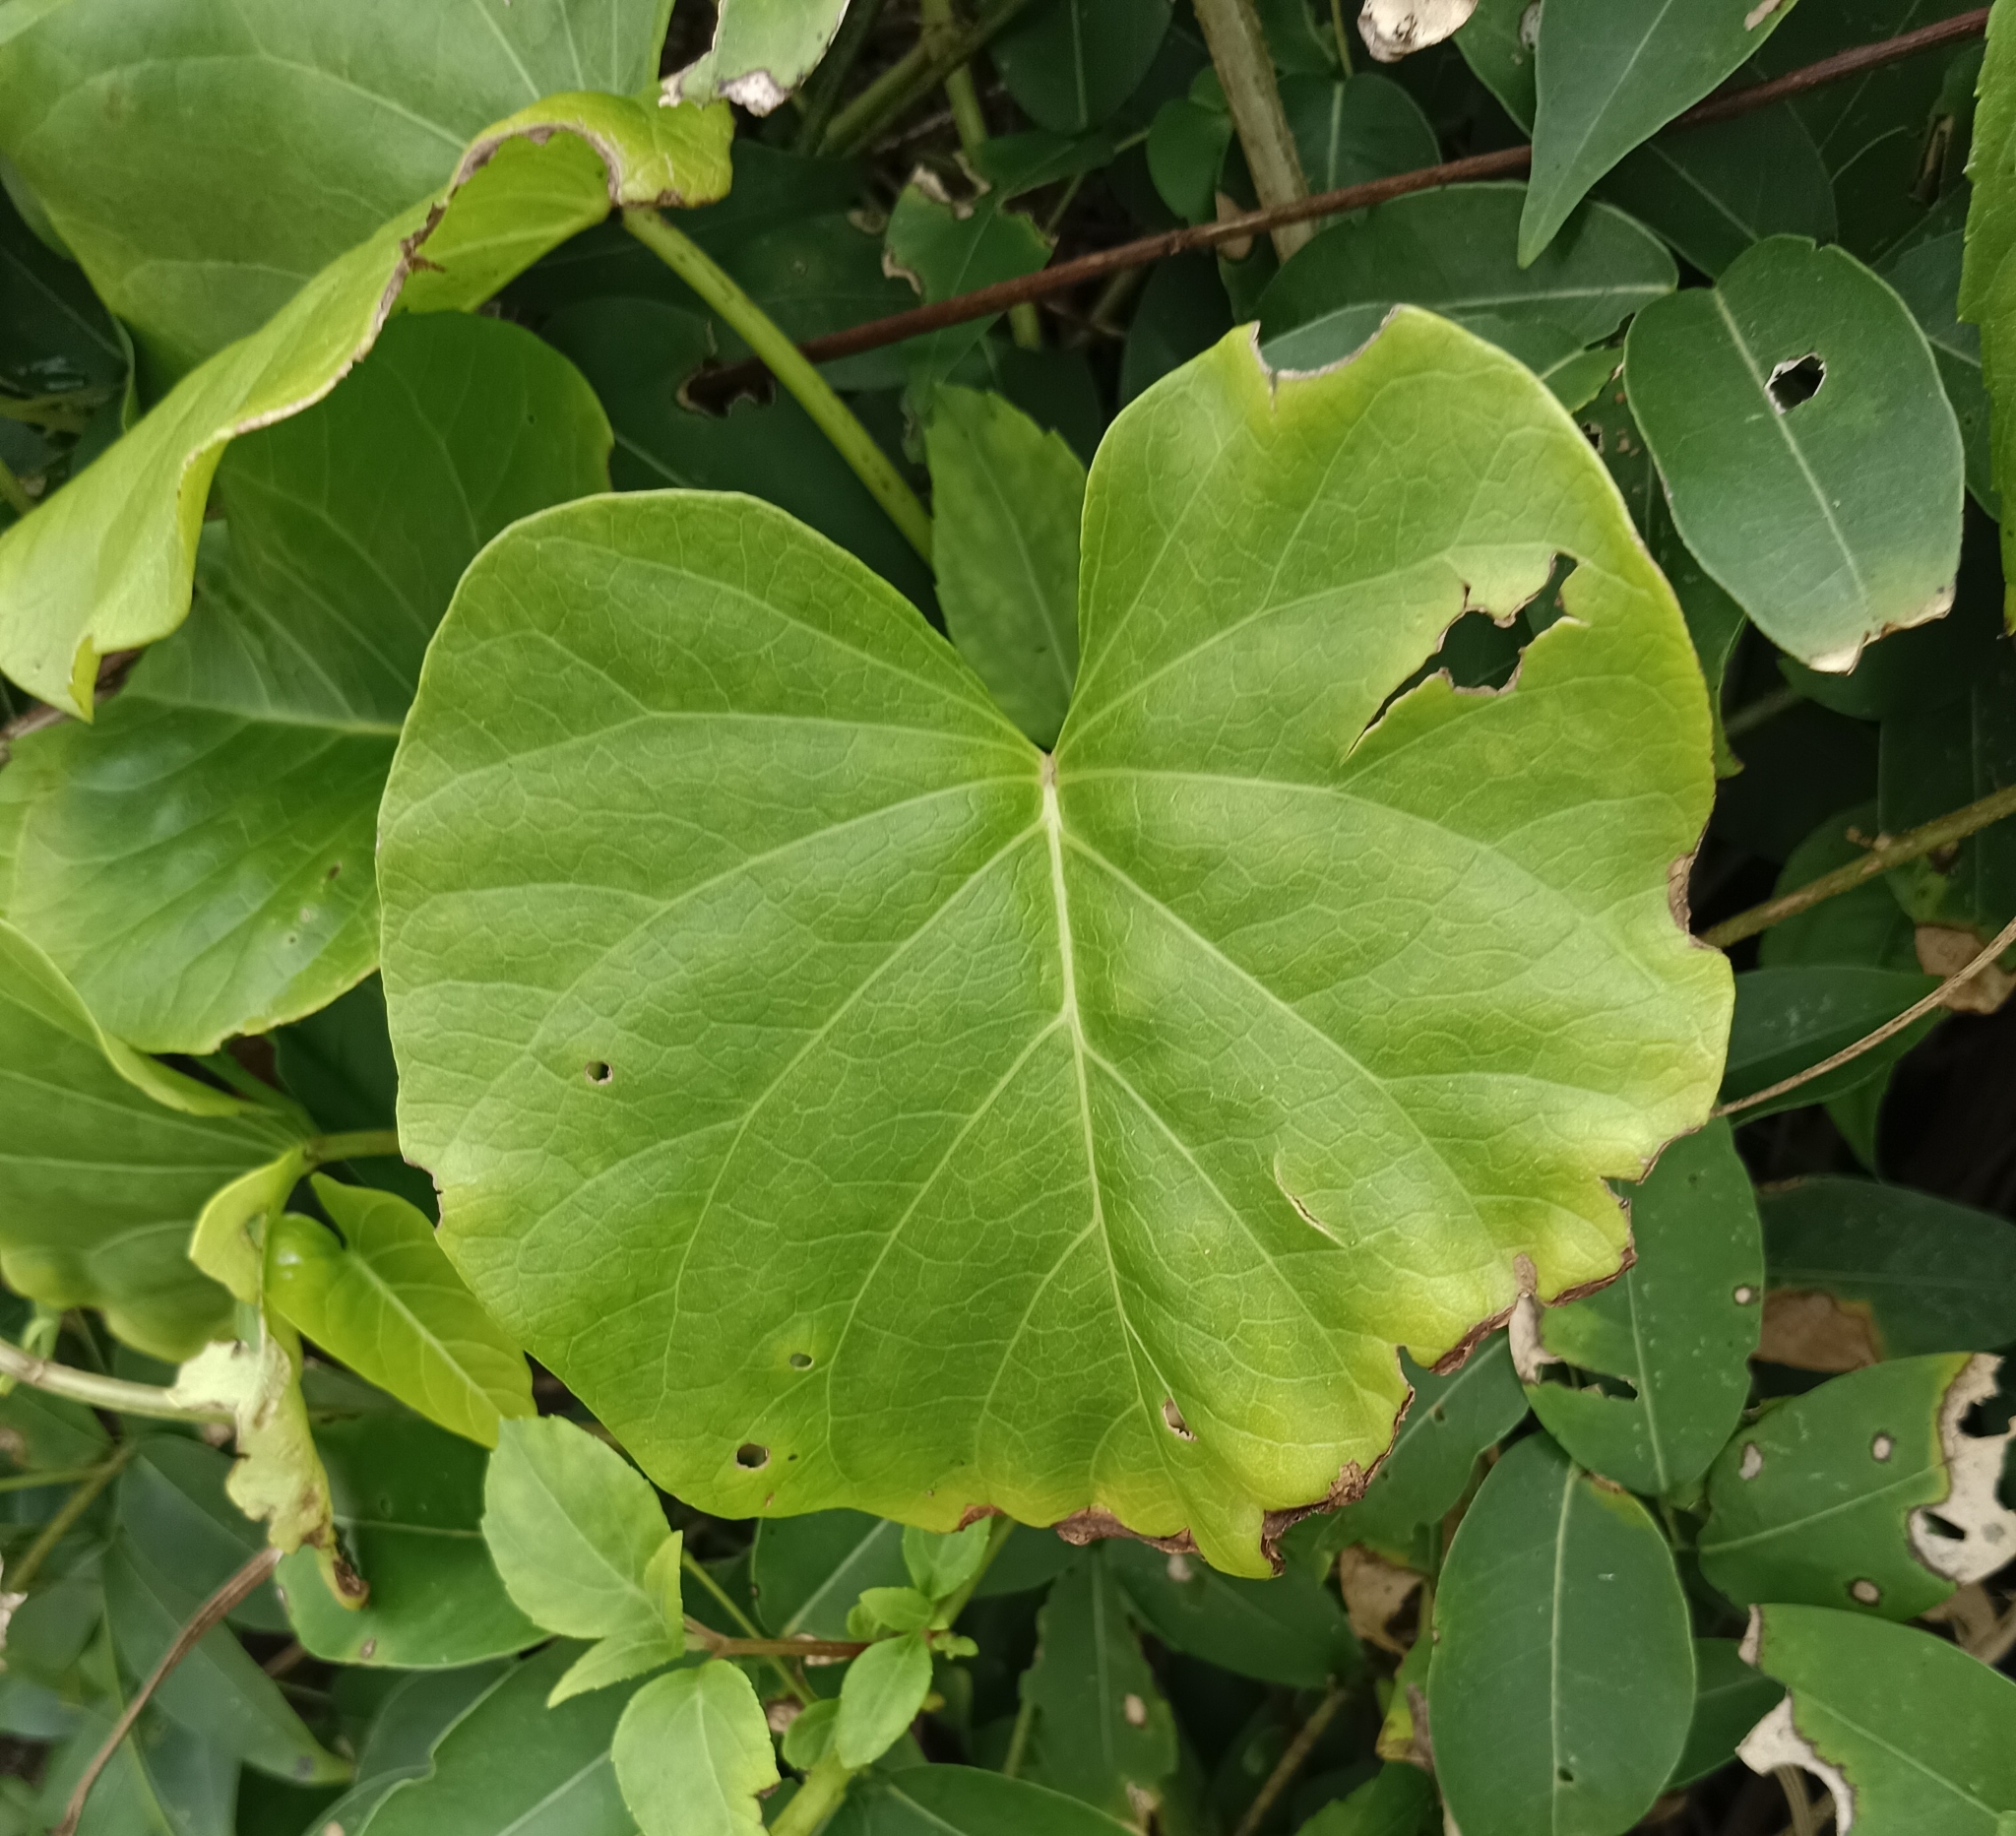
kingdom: Plantae
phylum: Tracheophyta
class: Magnoliopsida
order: Solanales
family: Convolvulaceae
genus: Ipomoea
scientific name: Ipomoea violacea
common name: Beach moonflower
